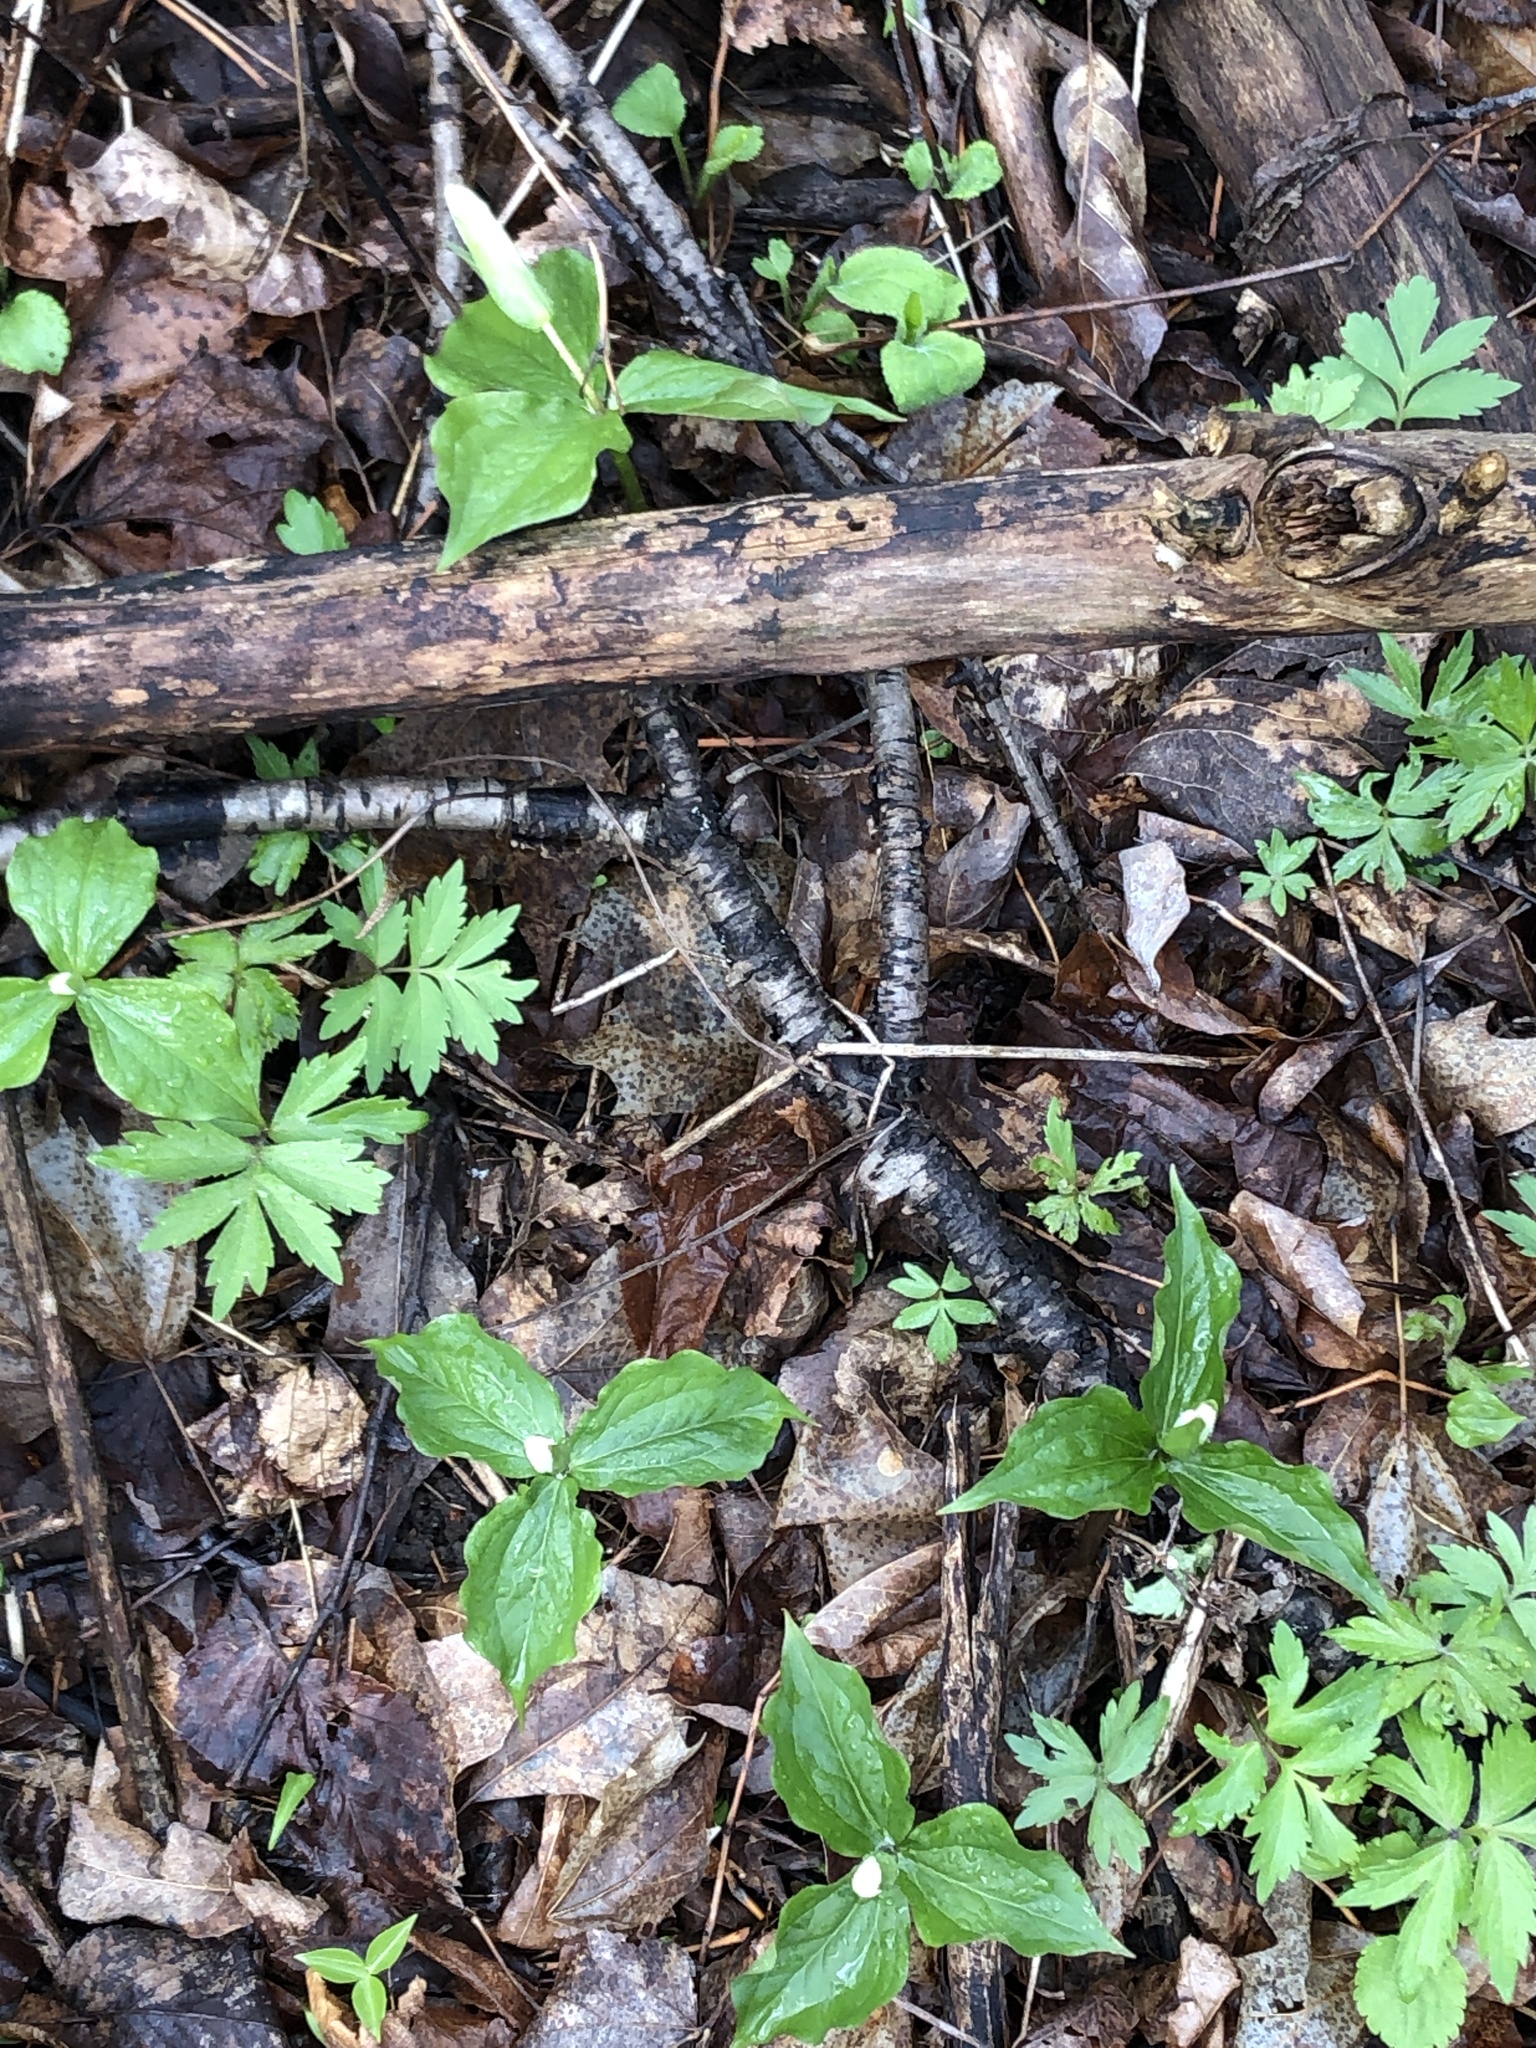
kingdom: Plantae
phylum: Tracheophyta
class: Liliopsida
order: Liliales
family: Melanthiaceae
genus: Trillium
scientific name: Trillium grandiflorum
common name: Great white trillium
